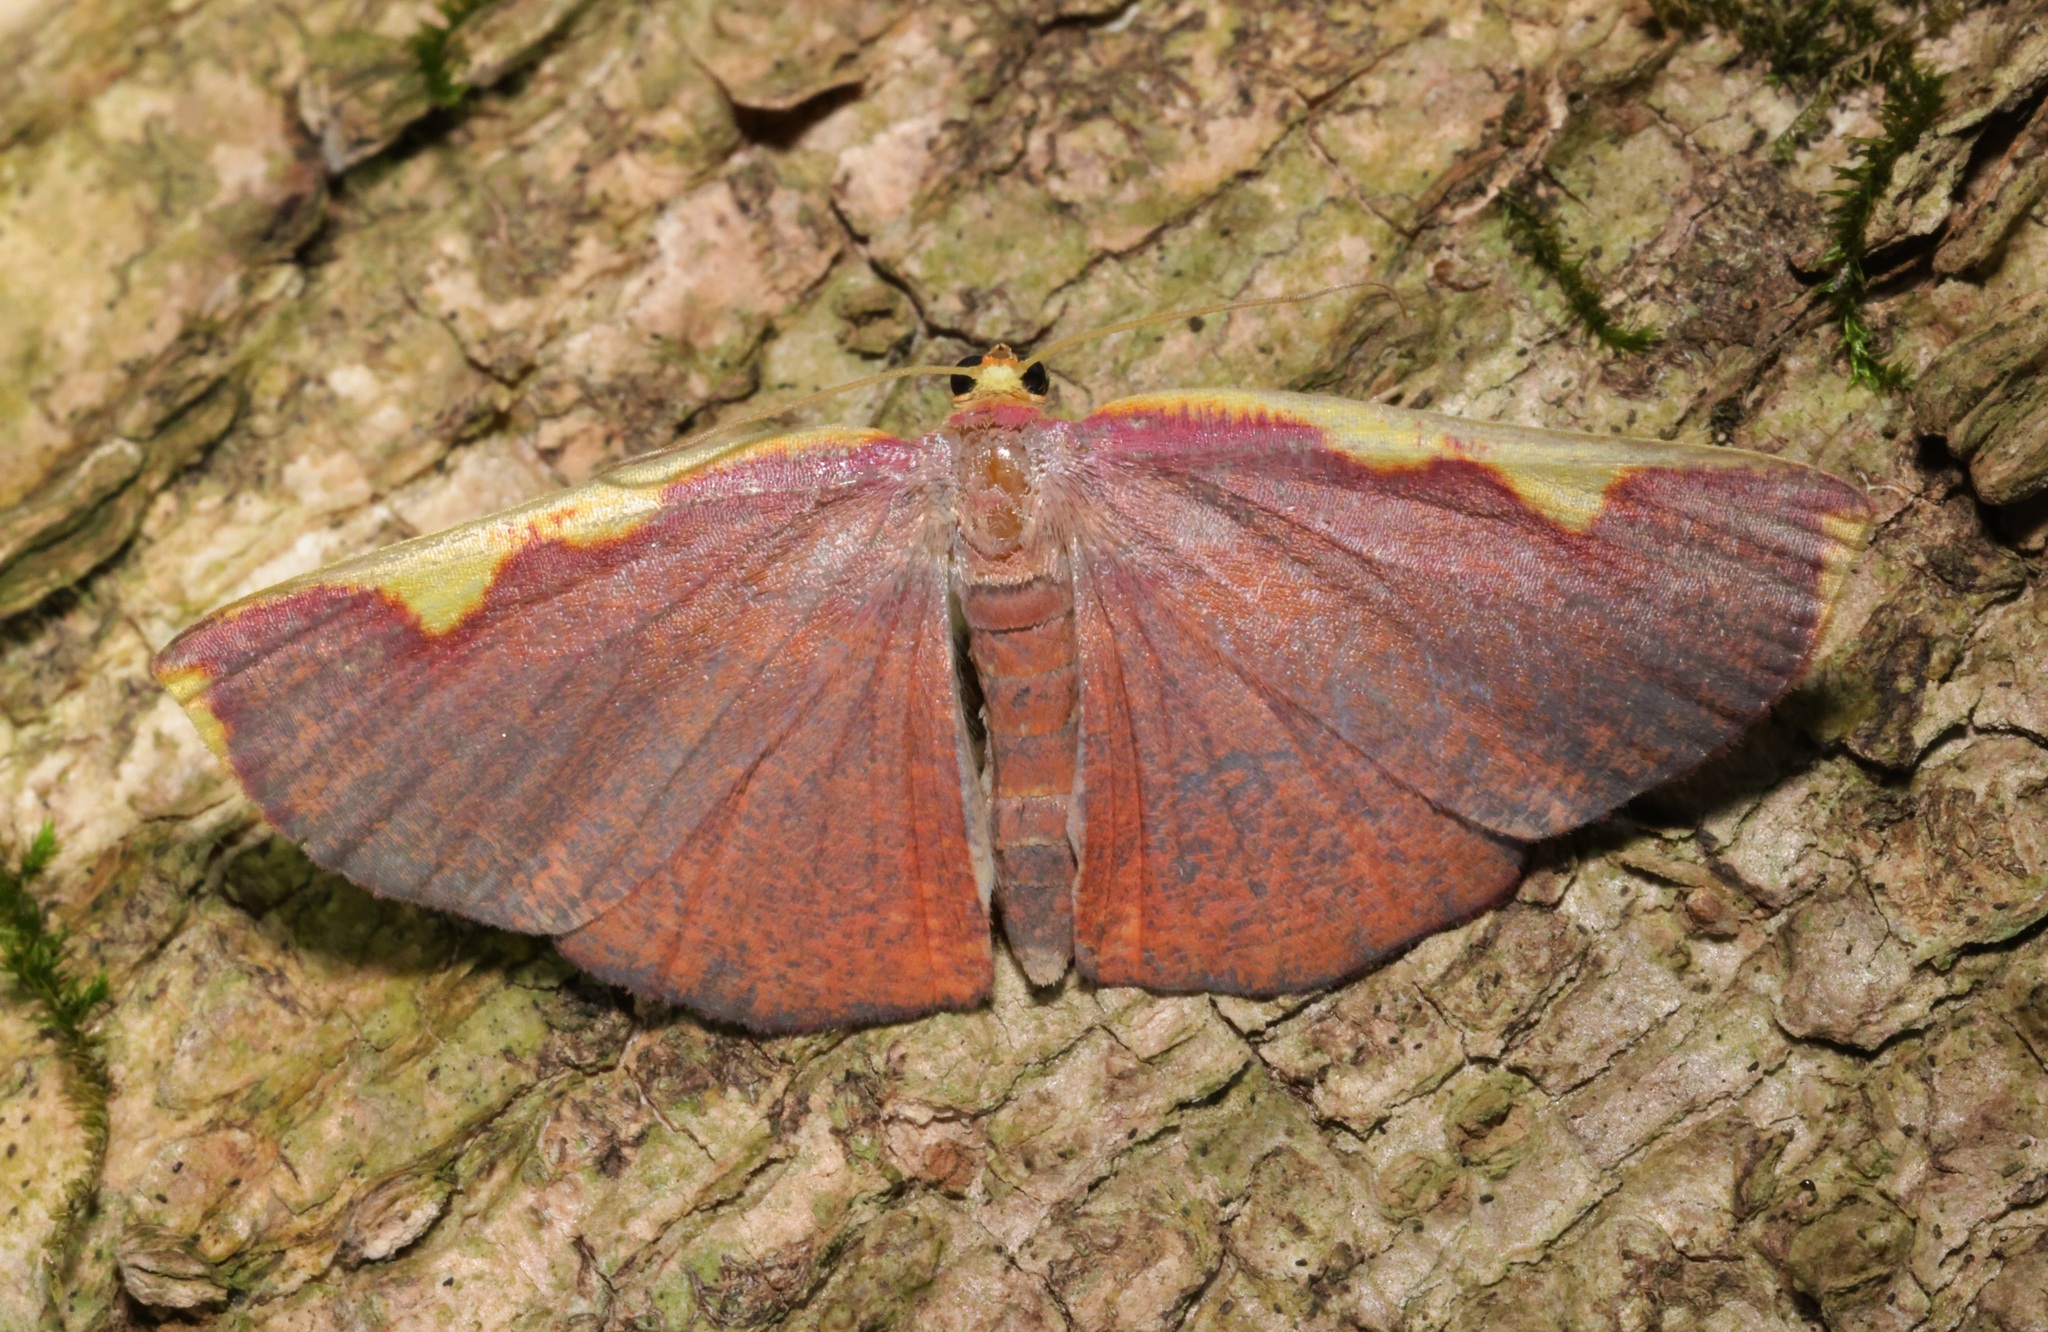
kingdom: Animalia
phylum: Arthropoda
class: Insecta
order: Lepidoptera
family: Geometridae
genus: Nothomiza
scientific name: Nothomiza flavicosta
